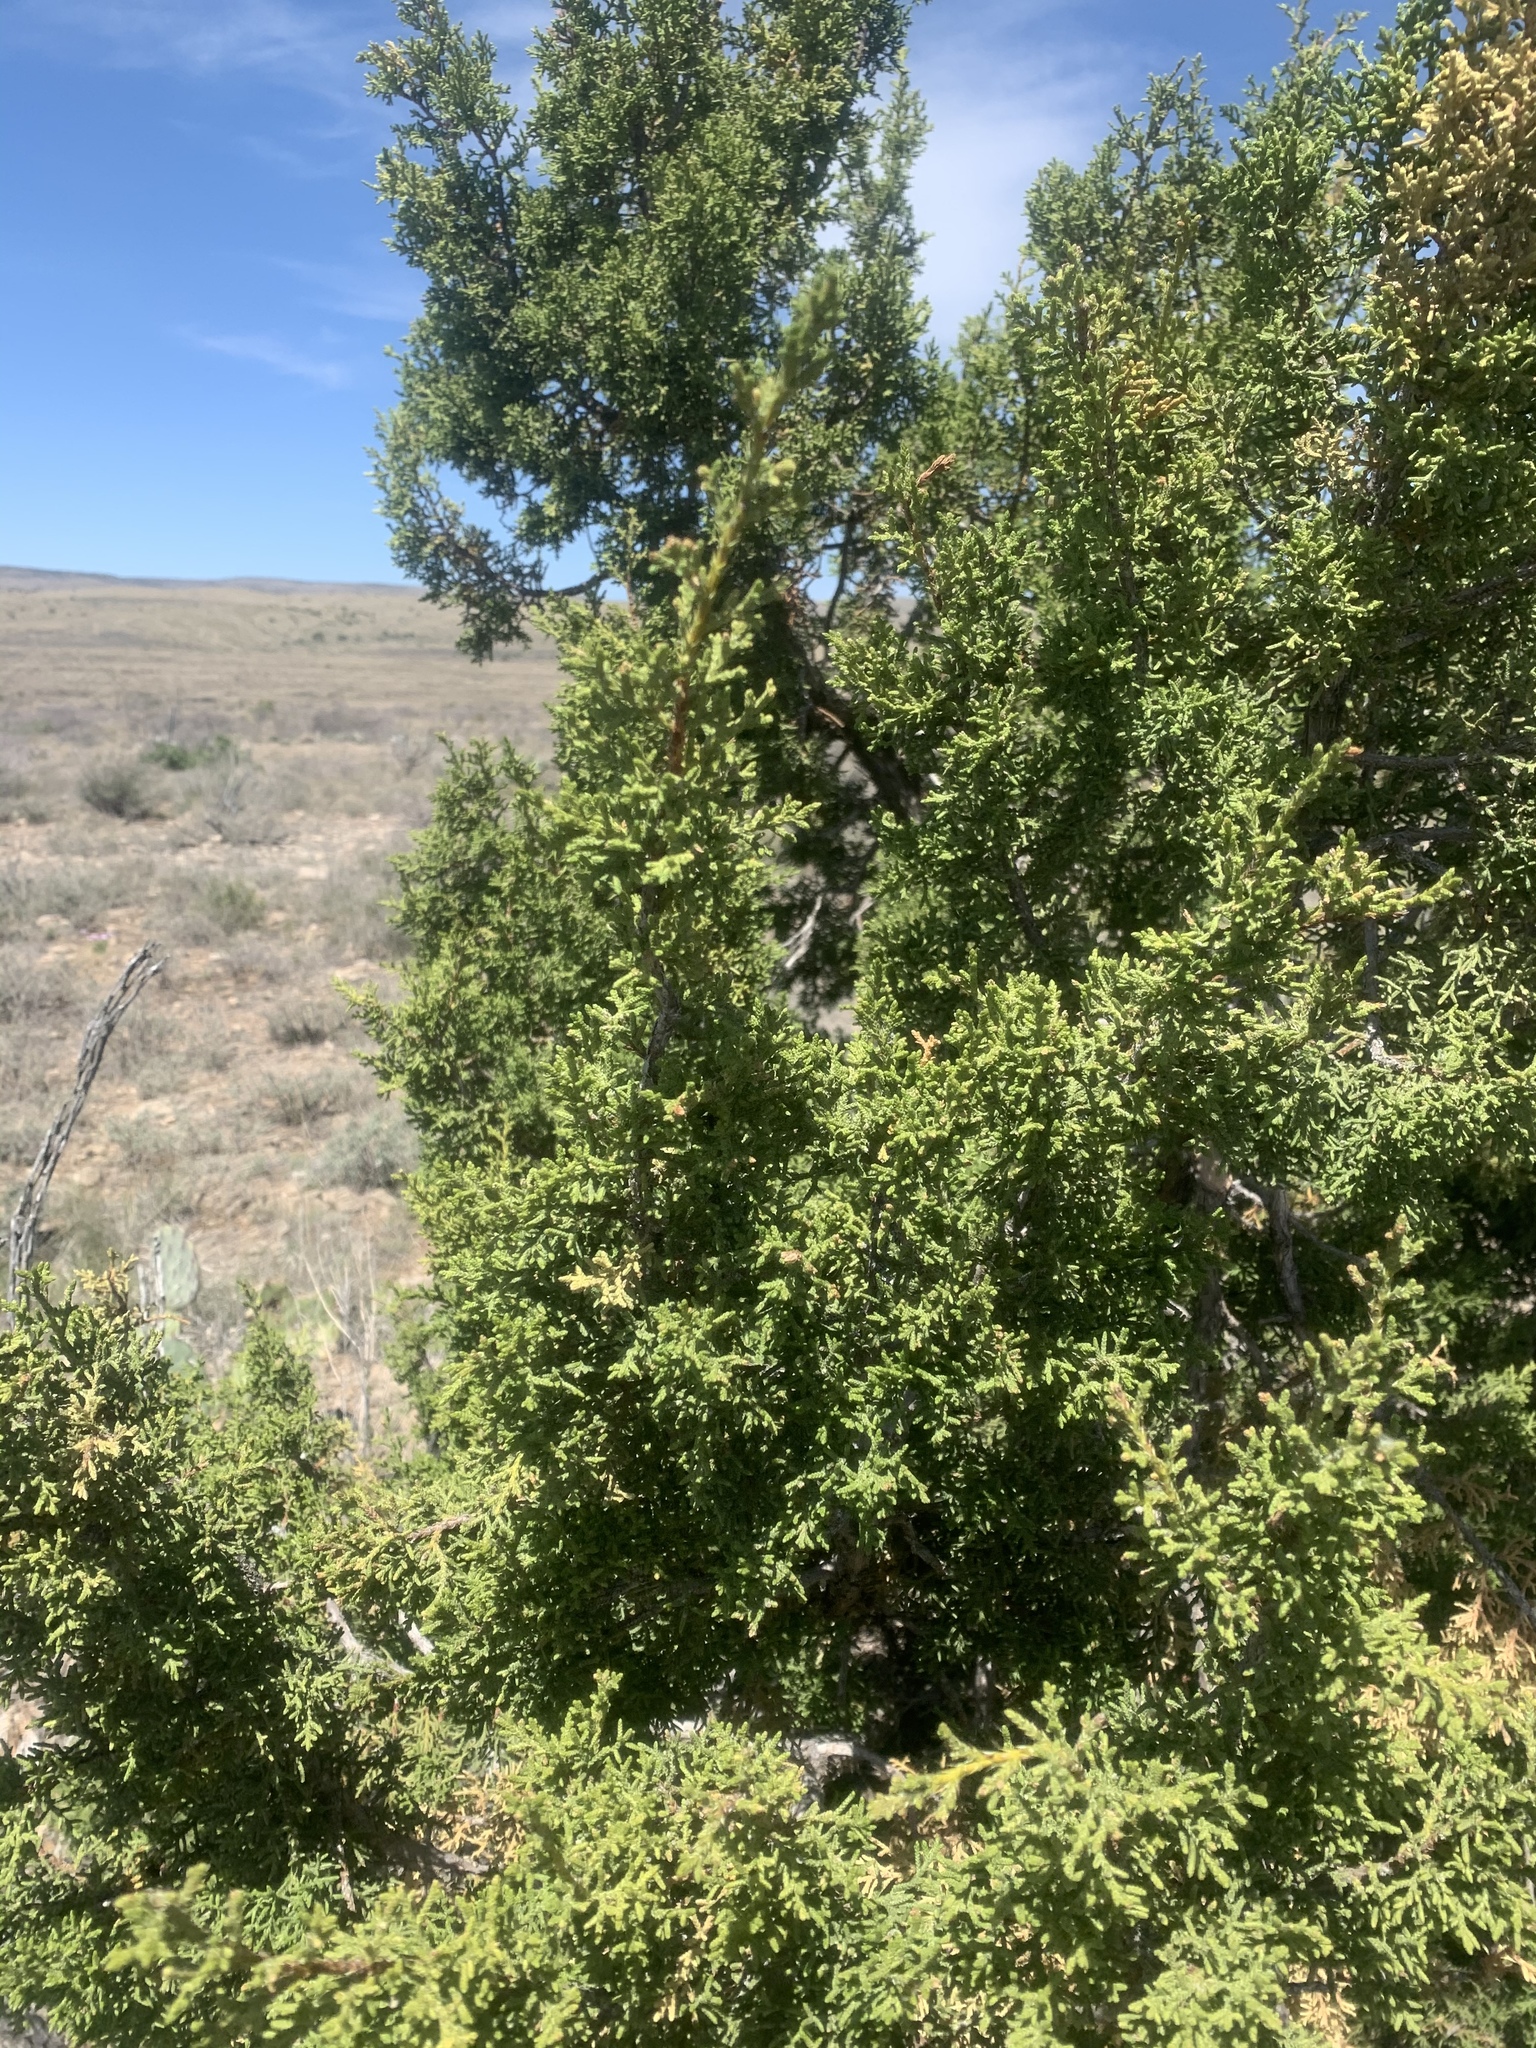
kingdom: Plantae
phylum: Tracheophyta
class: Pinopsida
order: Pinales
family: Cupressaceae
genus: Juniperus
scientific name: Juniperus monosperma
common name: One-seed juniper
